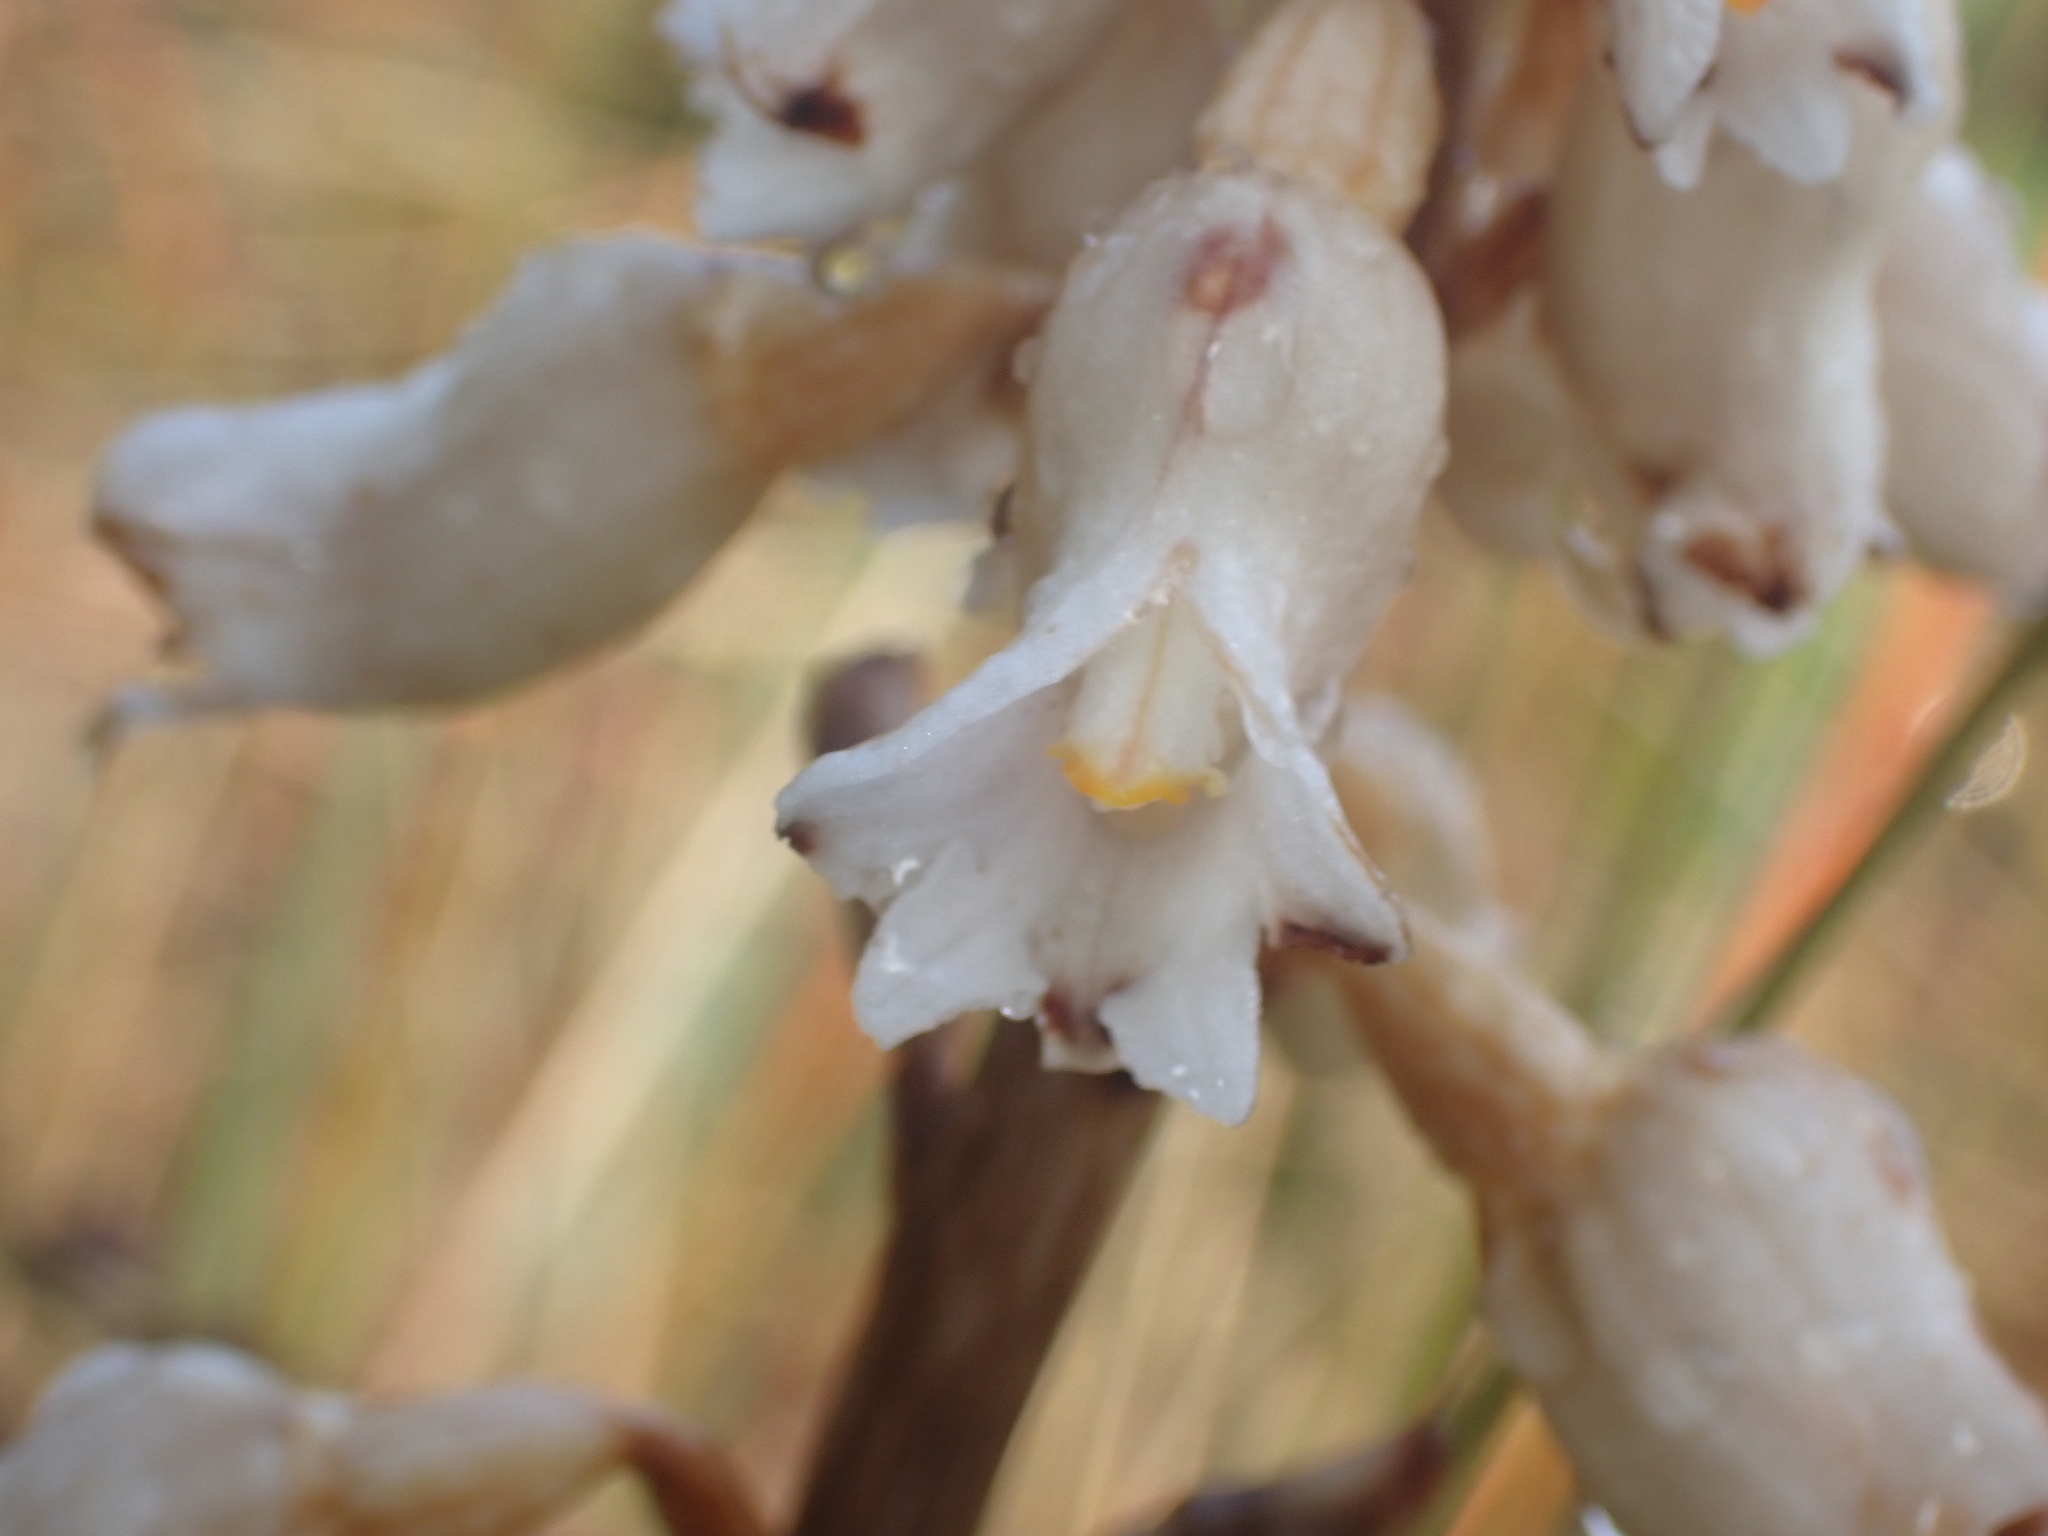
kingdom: Plantae
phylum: Tracheophyta
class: Liliopsida
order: Asparagales
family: Orchidaceae
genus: Gastrodia
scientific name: Gastrodia sesamoides
